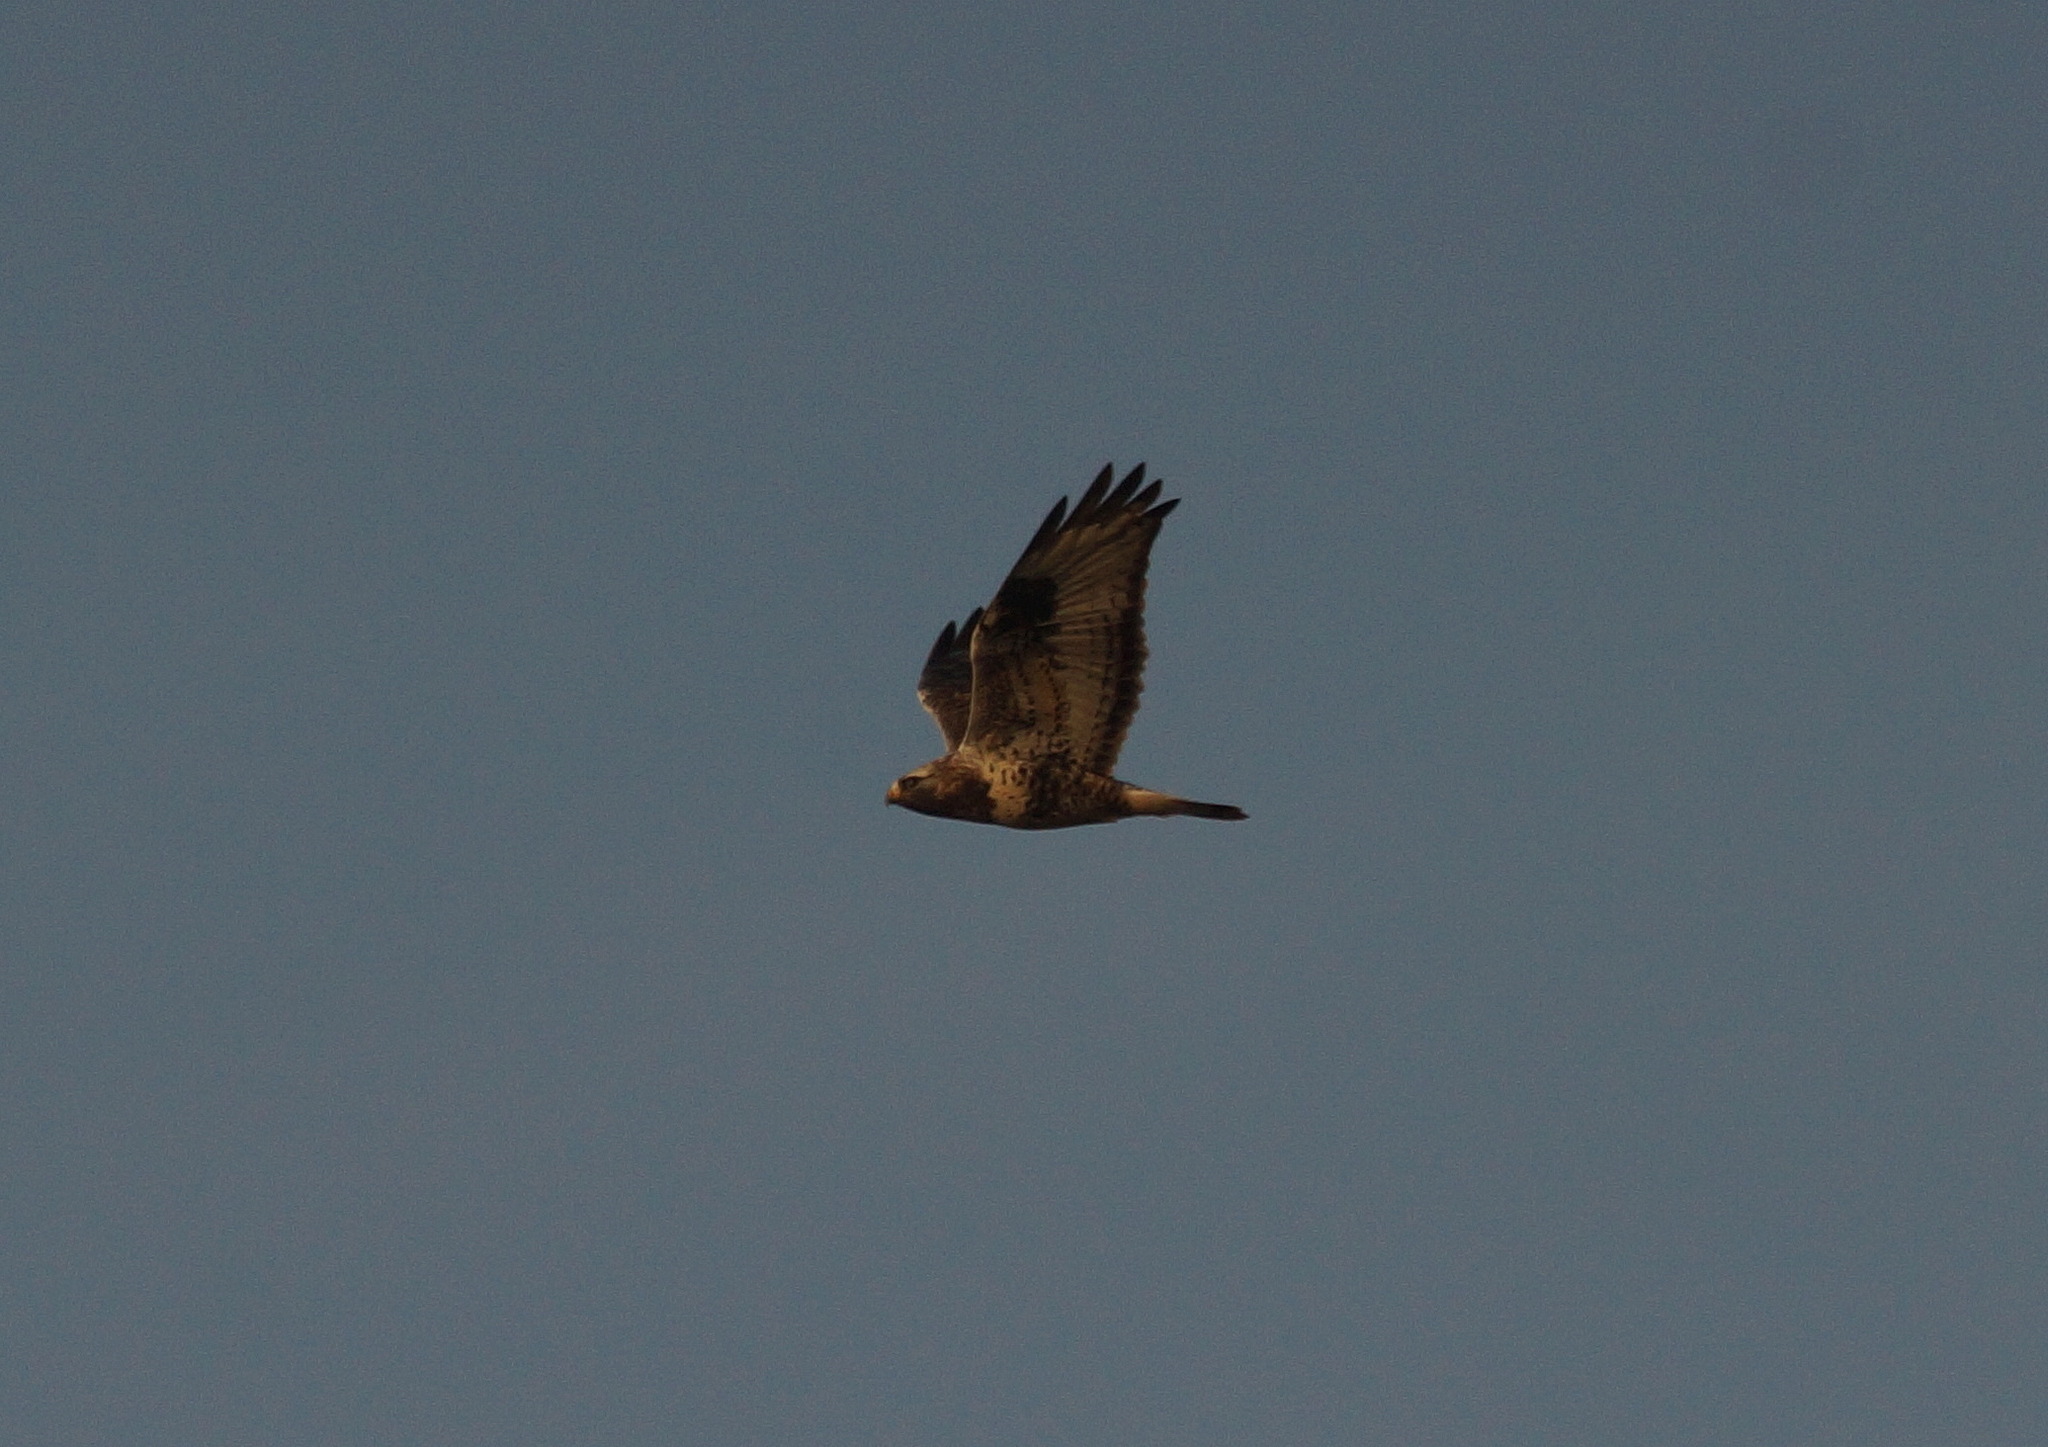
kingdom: Animalia
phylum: Chordata
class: Aves
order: Accipitriformes
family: Accipitridae
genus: Buteo
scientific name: Buteo lagopus
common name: Rough-legged buzzard
